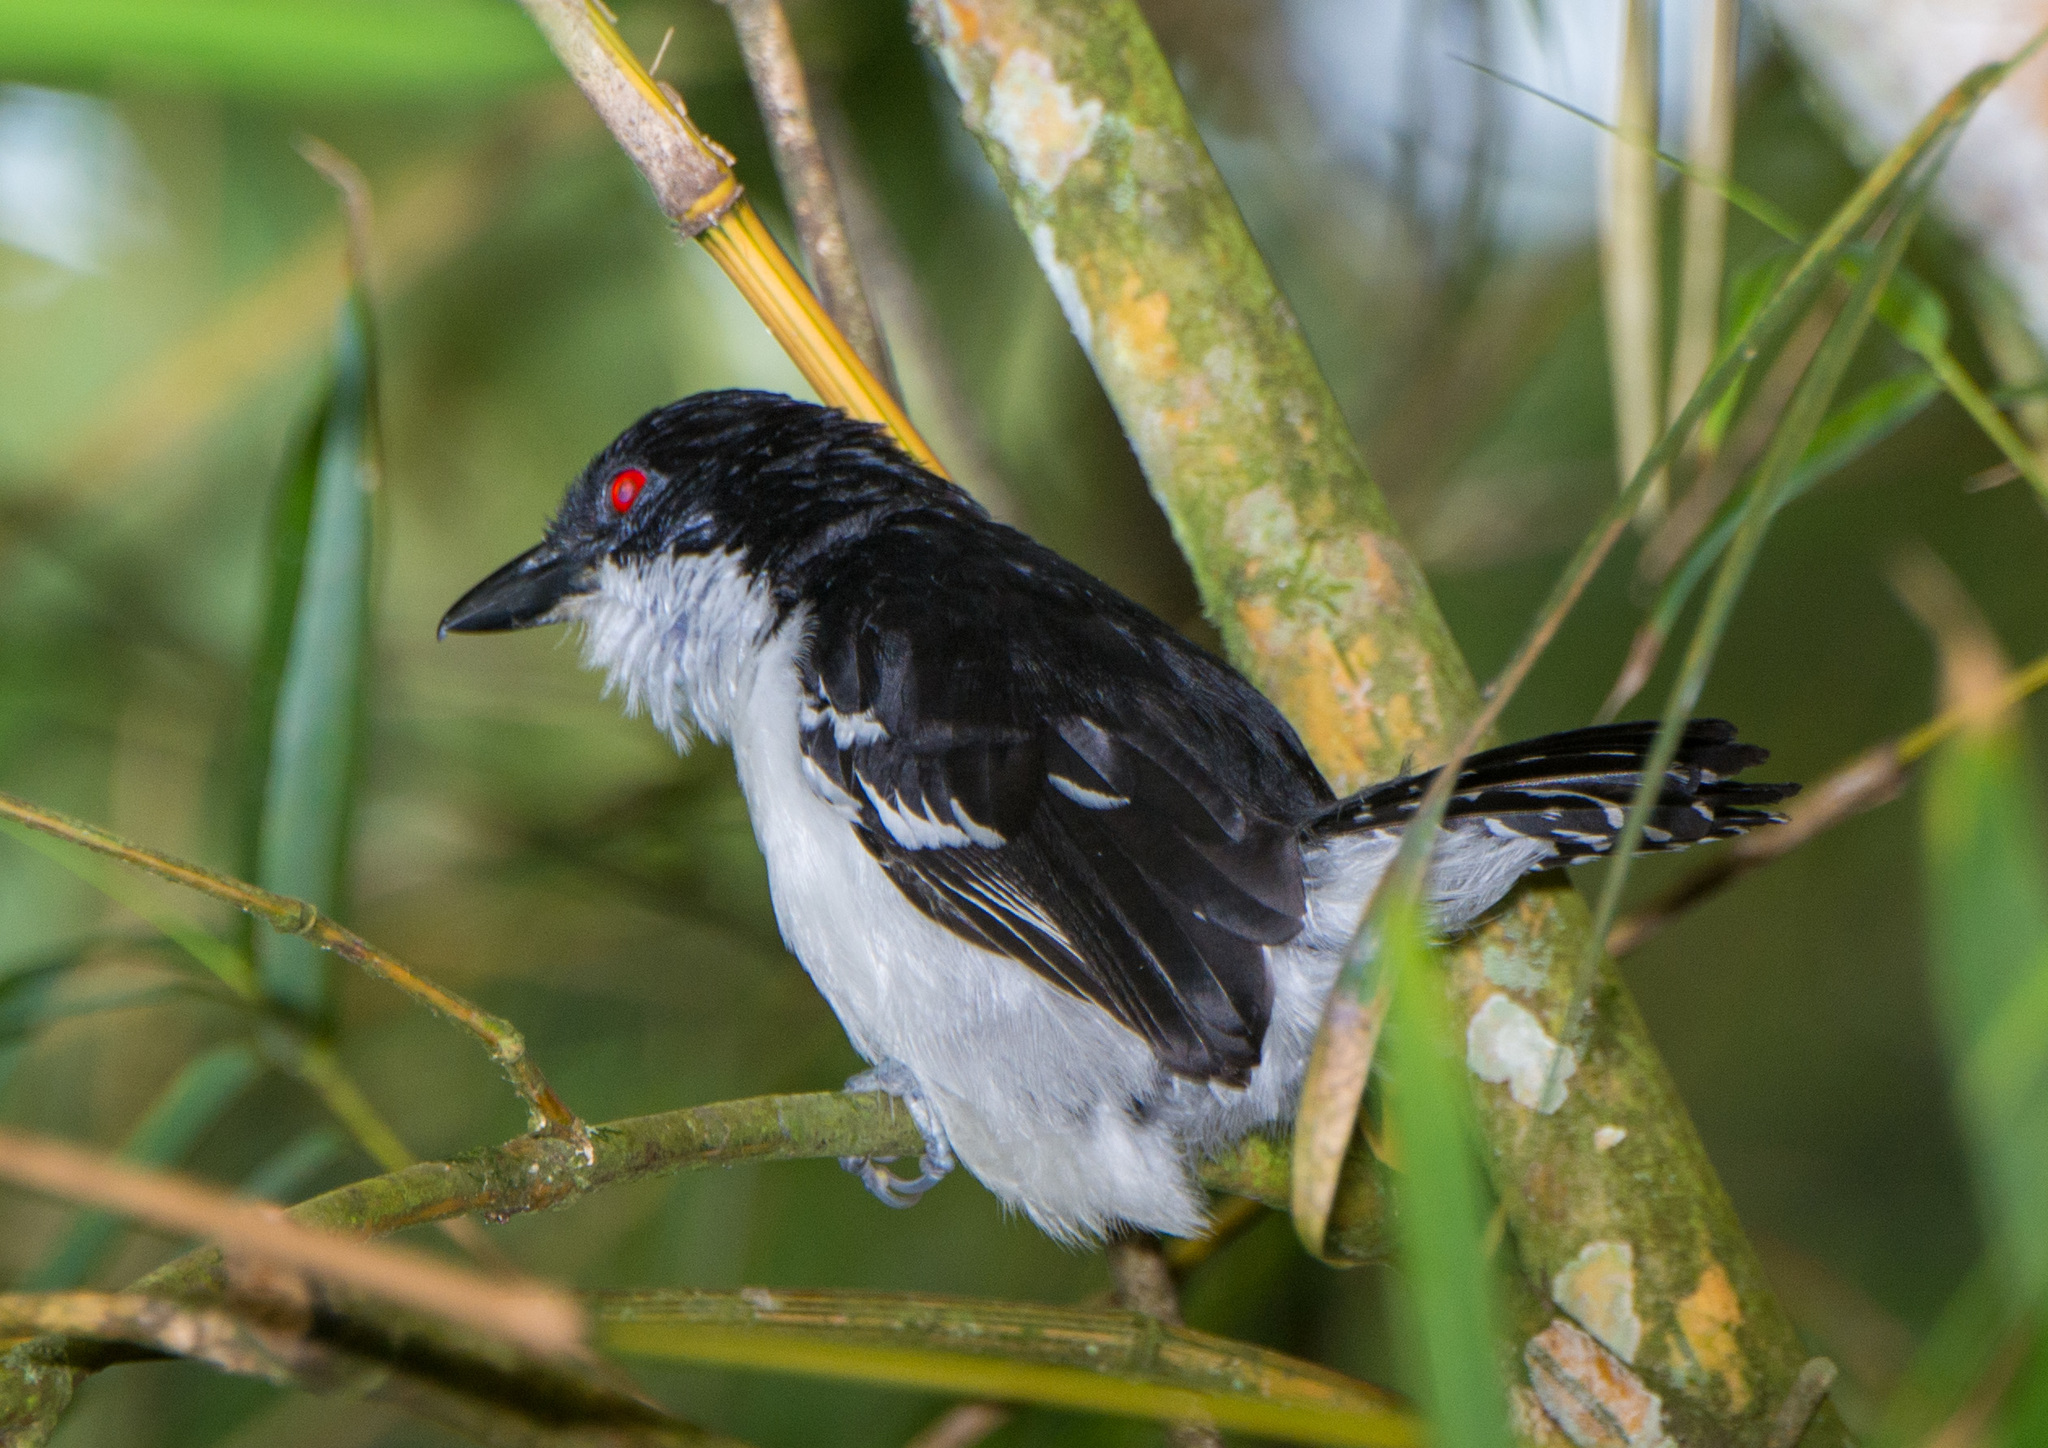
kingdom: Animalia
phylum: Chordata
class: Aves
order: Passeriformes
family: Thamnophilidae
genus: Taraba
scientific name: Taraba major
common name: Great antshrike
